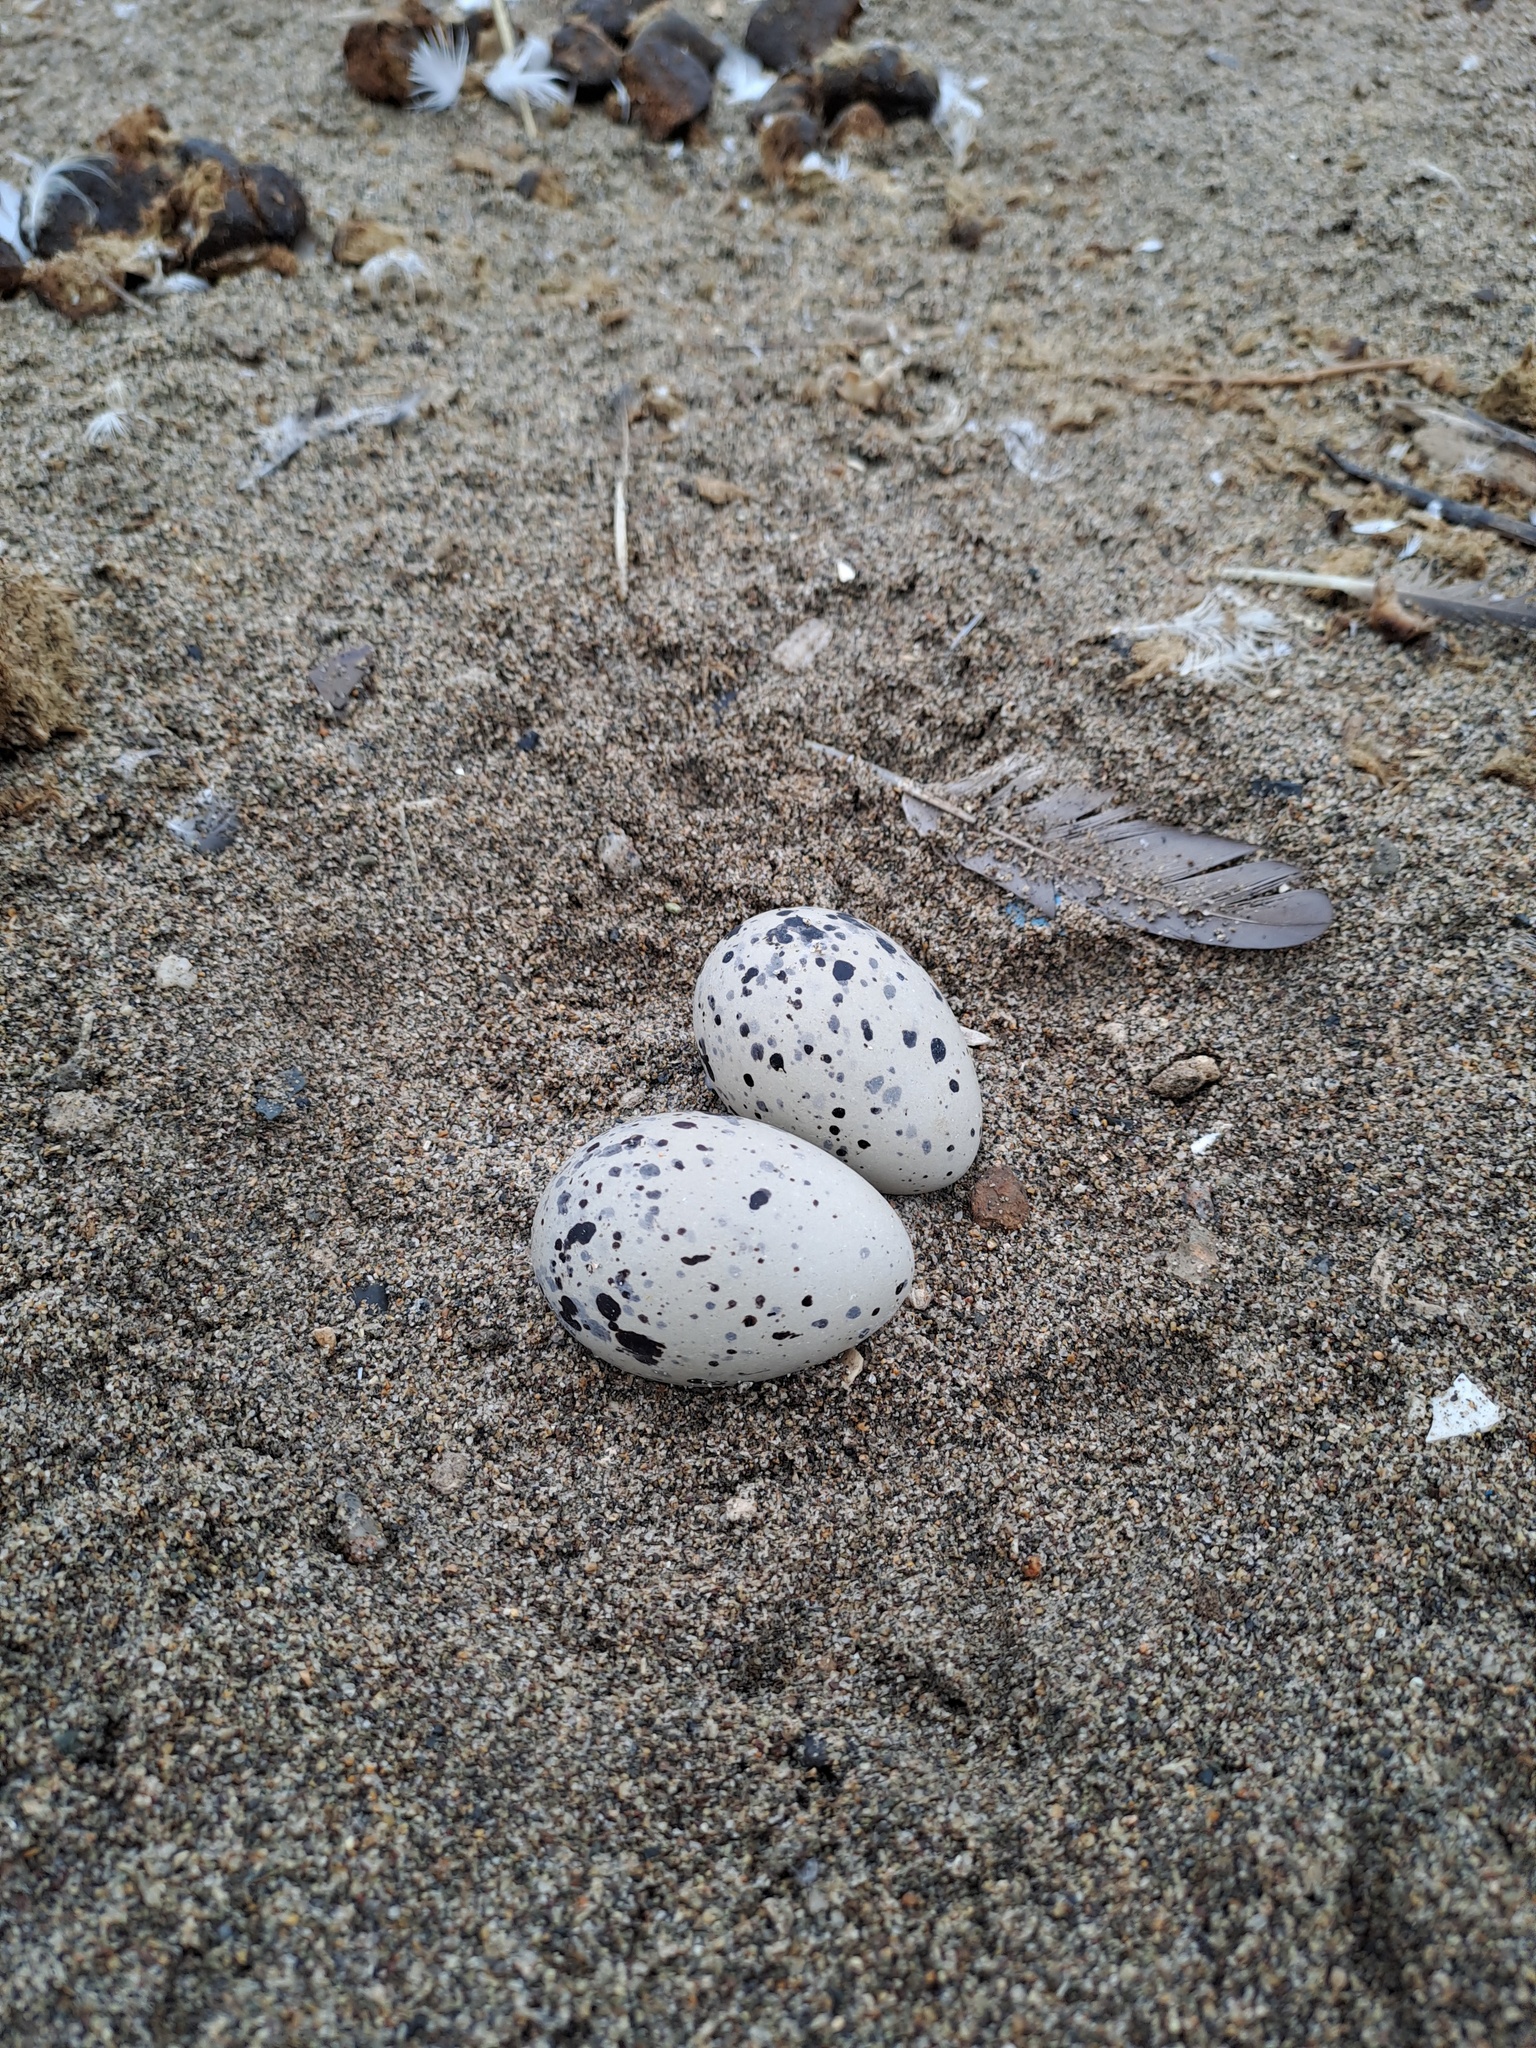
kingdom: Animalia
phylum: Chordata
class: Aves
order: Charadriiformes
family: Haematopodidae
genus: Haematopus
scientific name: Haematopus palliatus
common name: American oystercatcher
